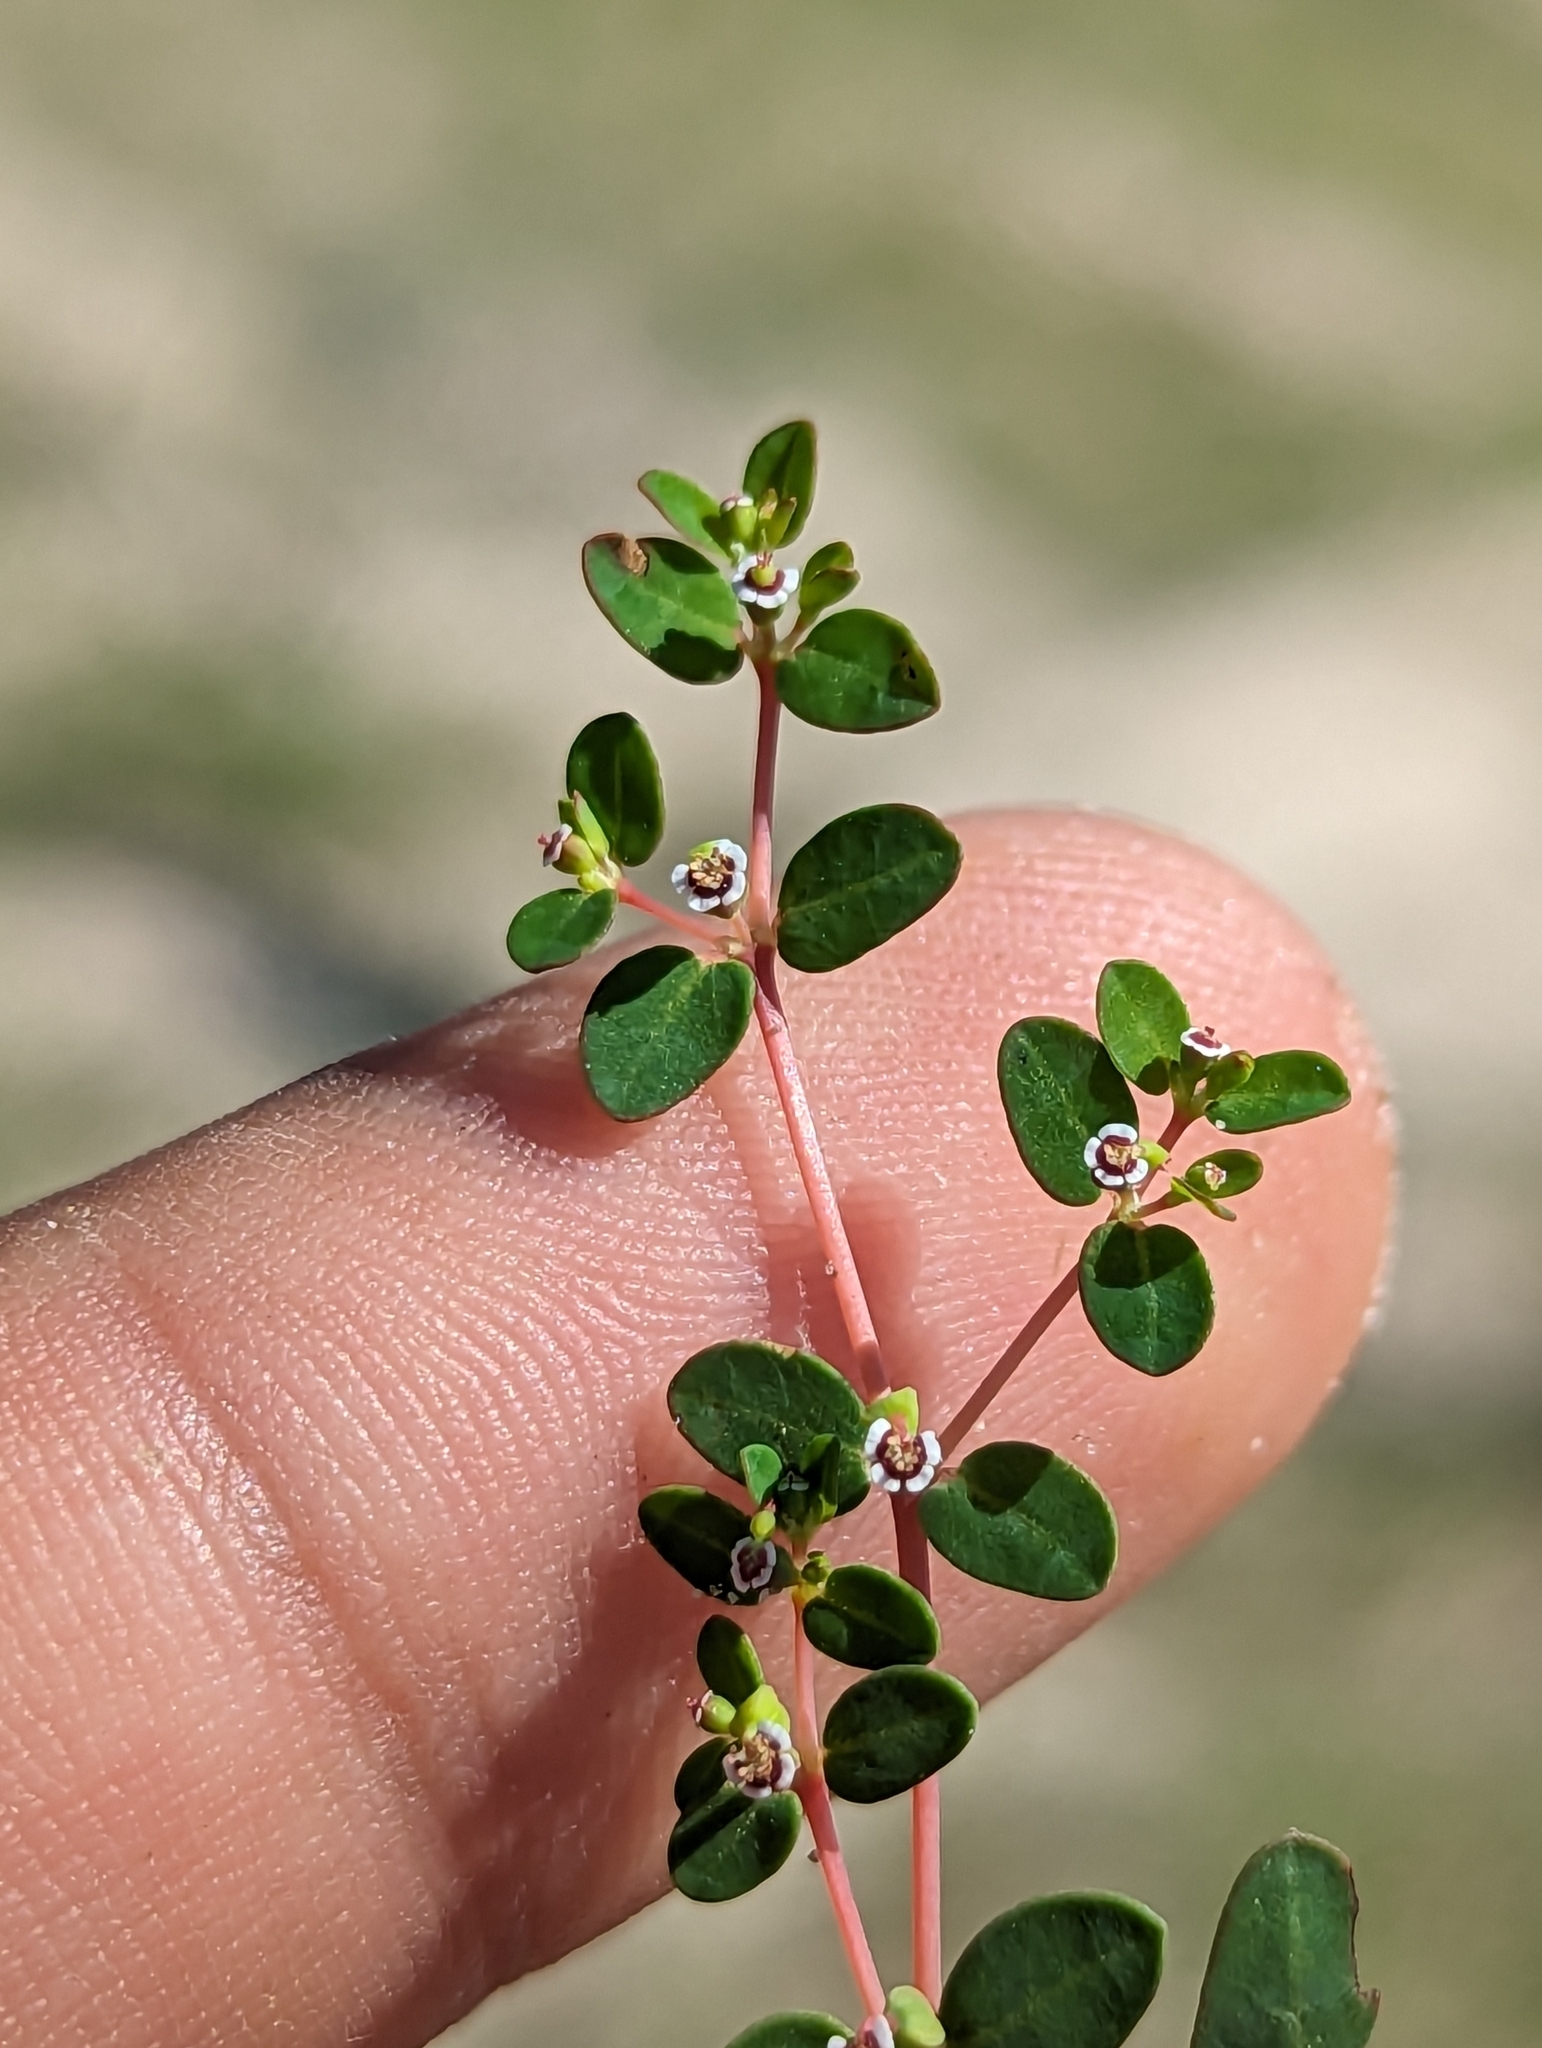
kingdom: Plantae
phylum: Tracheophyta
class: Magnoliopsida
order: Malpighiales
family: Euphorbiaceae
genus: Euphorbia
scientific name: Euphorbia polycarpa
